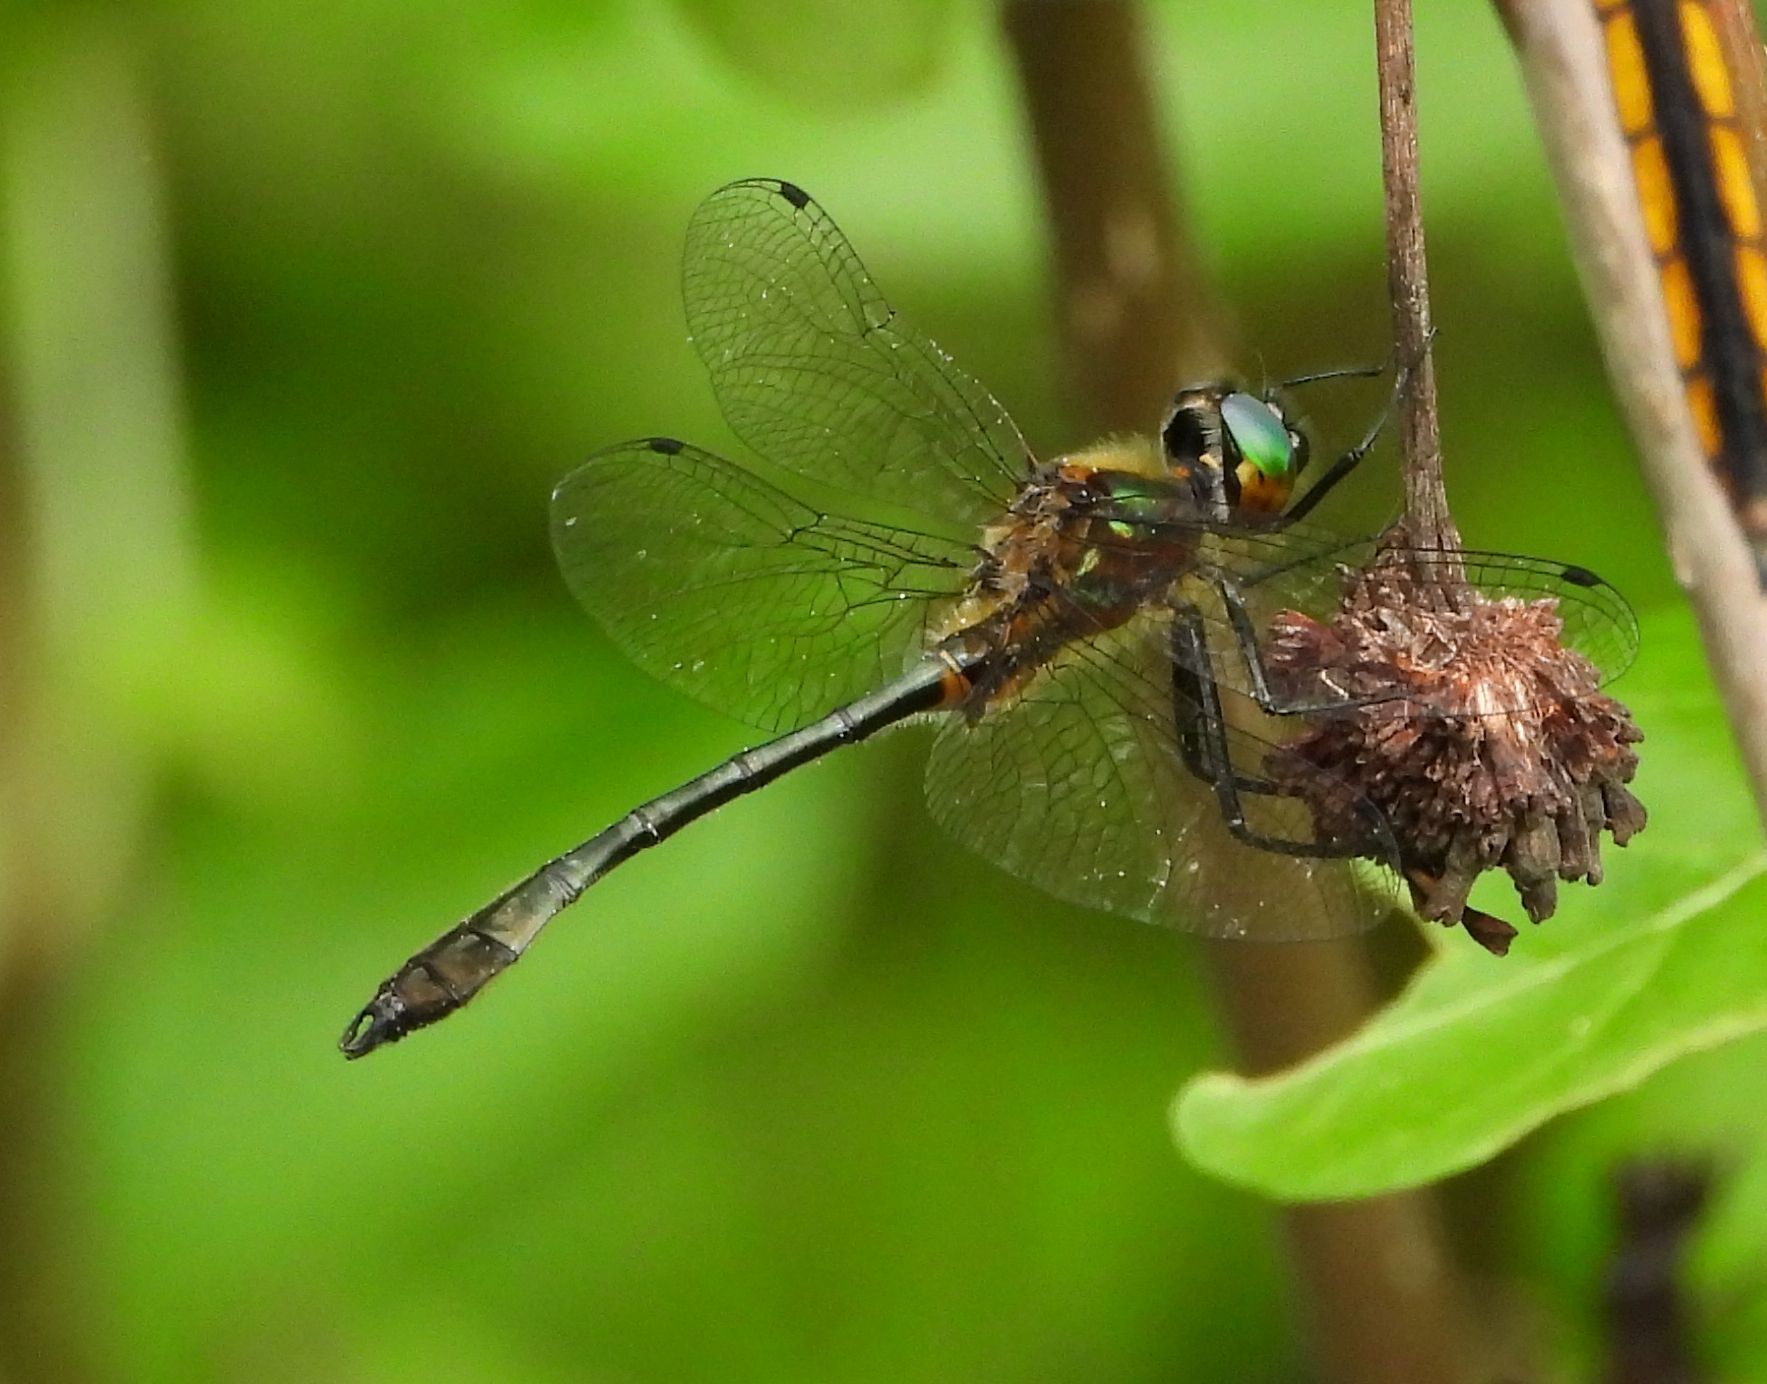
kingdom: Animalia
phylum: Arthropoda
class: Insecta
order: Odonata
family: Corduliidae
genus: Dorocordulia
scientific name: Dorocordulia libera
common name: Racket-tailed emerald
